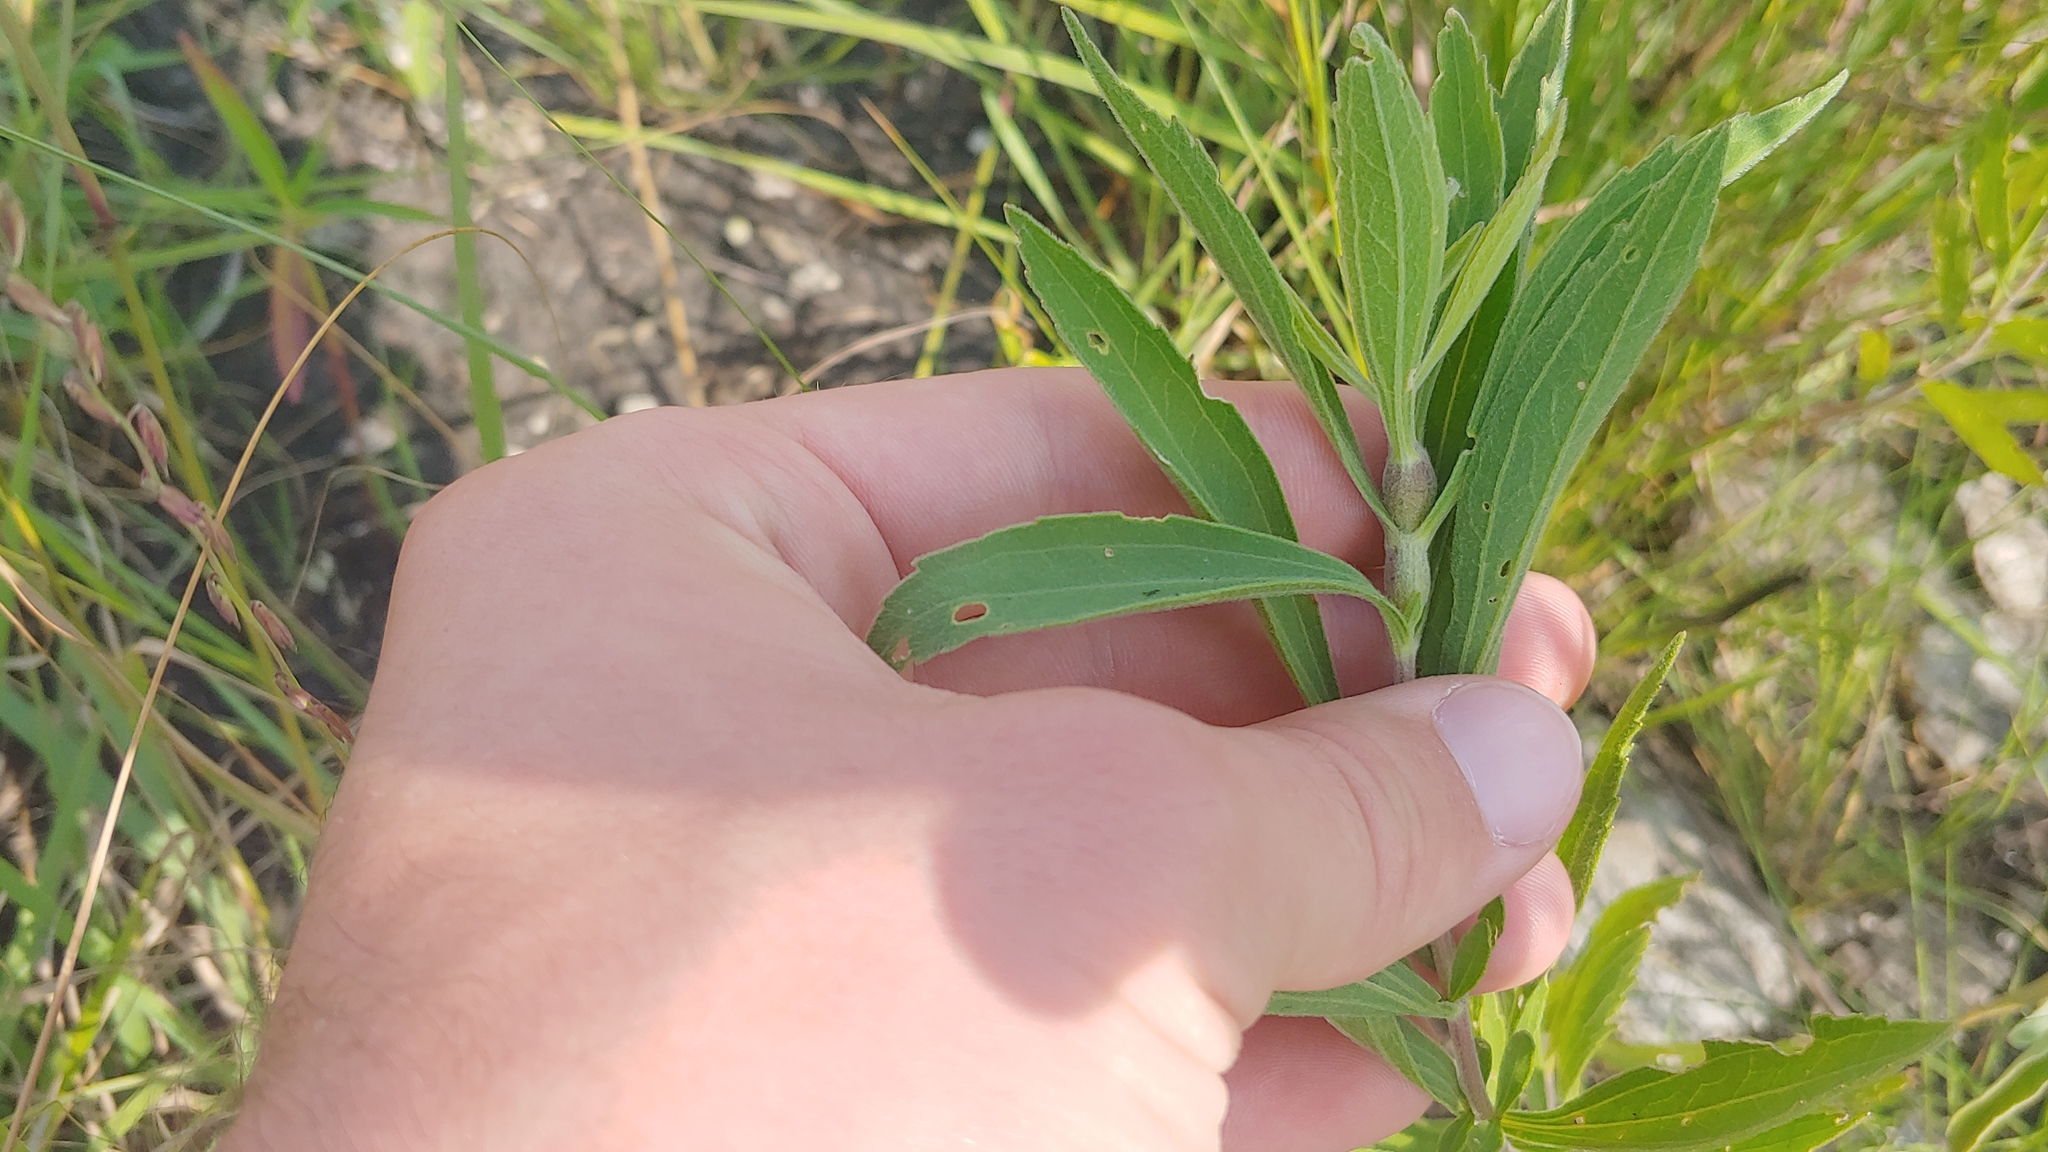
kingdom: Animalia
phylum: Arthropoda
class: Insecta
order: Diptera
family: Cecidomyiidae
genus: Neolasioptera
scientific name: Neolasioptera perfoliata
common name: Boneset stem midge
